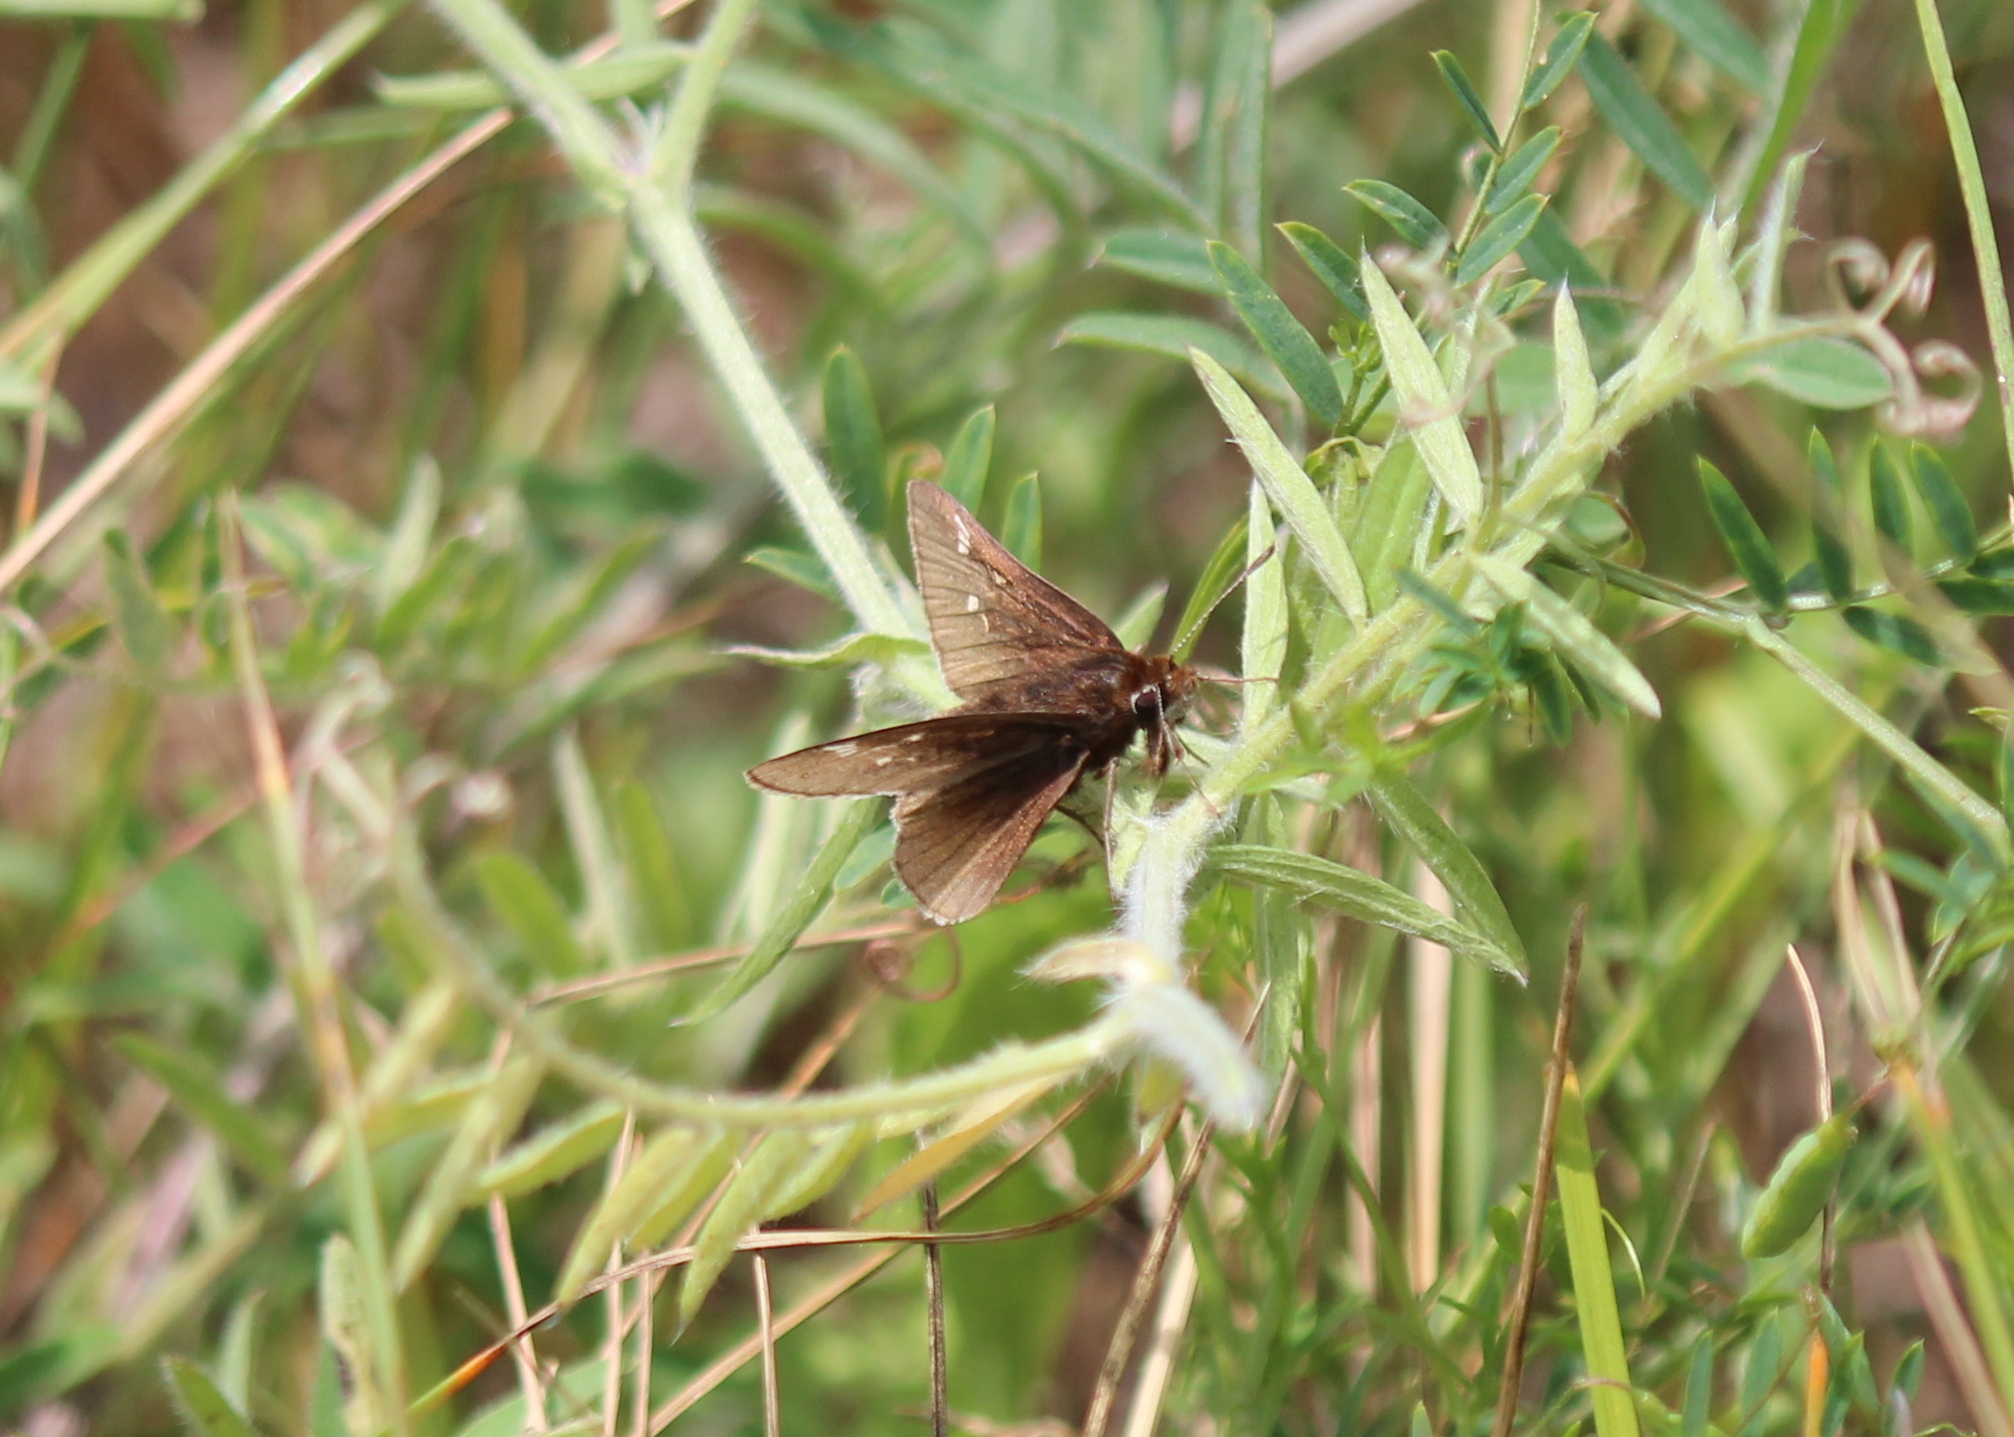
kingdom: Animalia
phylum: Arthropoda
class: Insecta
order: Lepidoptera
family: Hesperiidae
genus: Atrytonopsis
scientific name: Atrytonopsis hianna
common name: Dusted skipper
